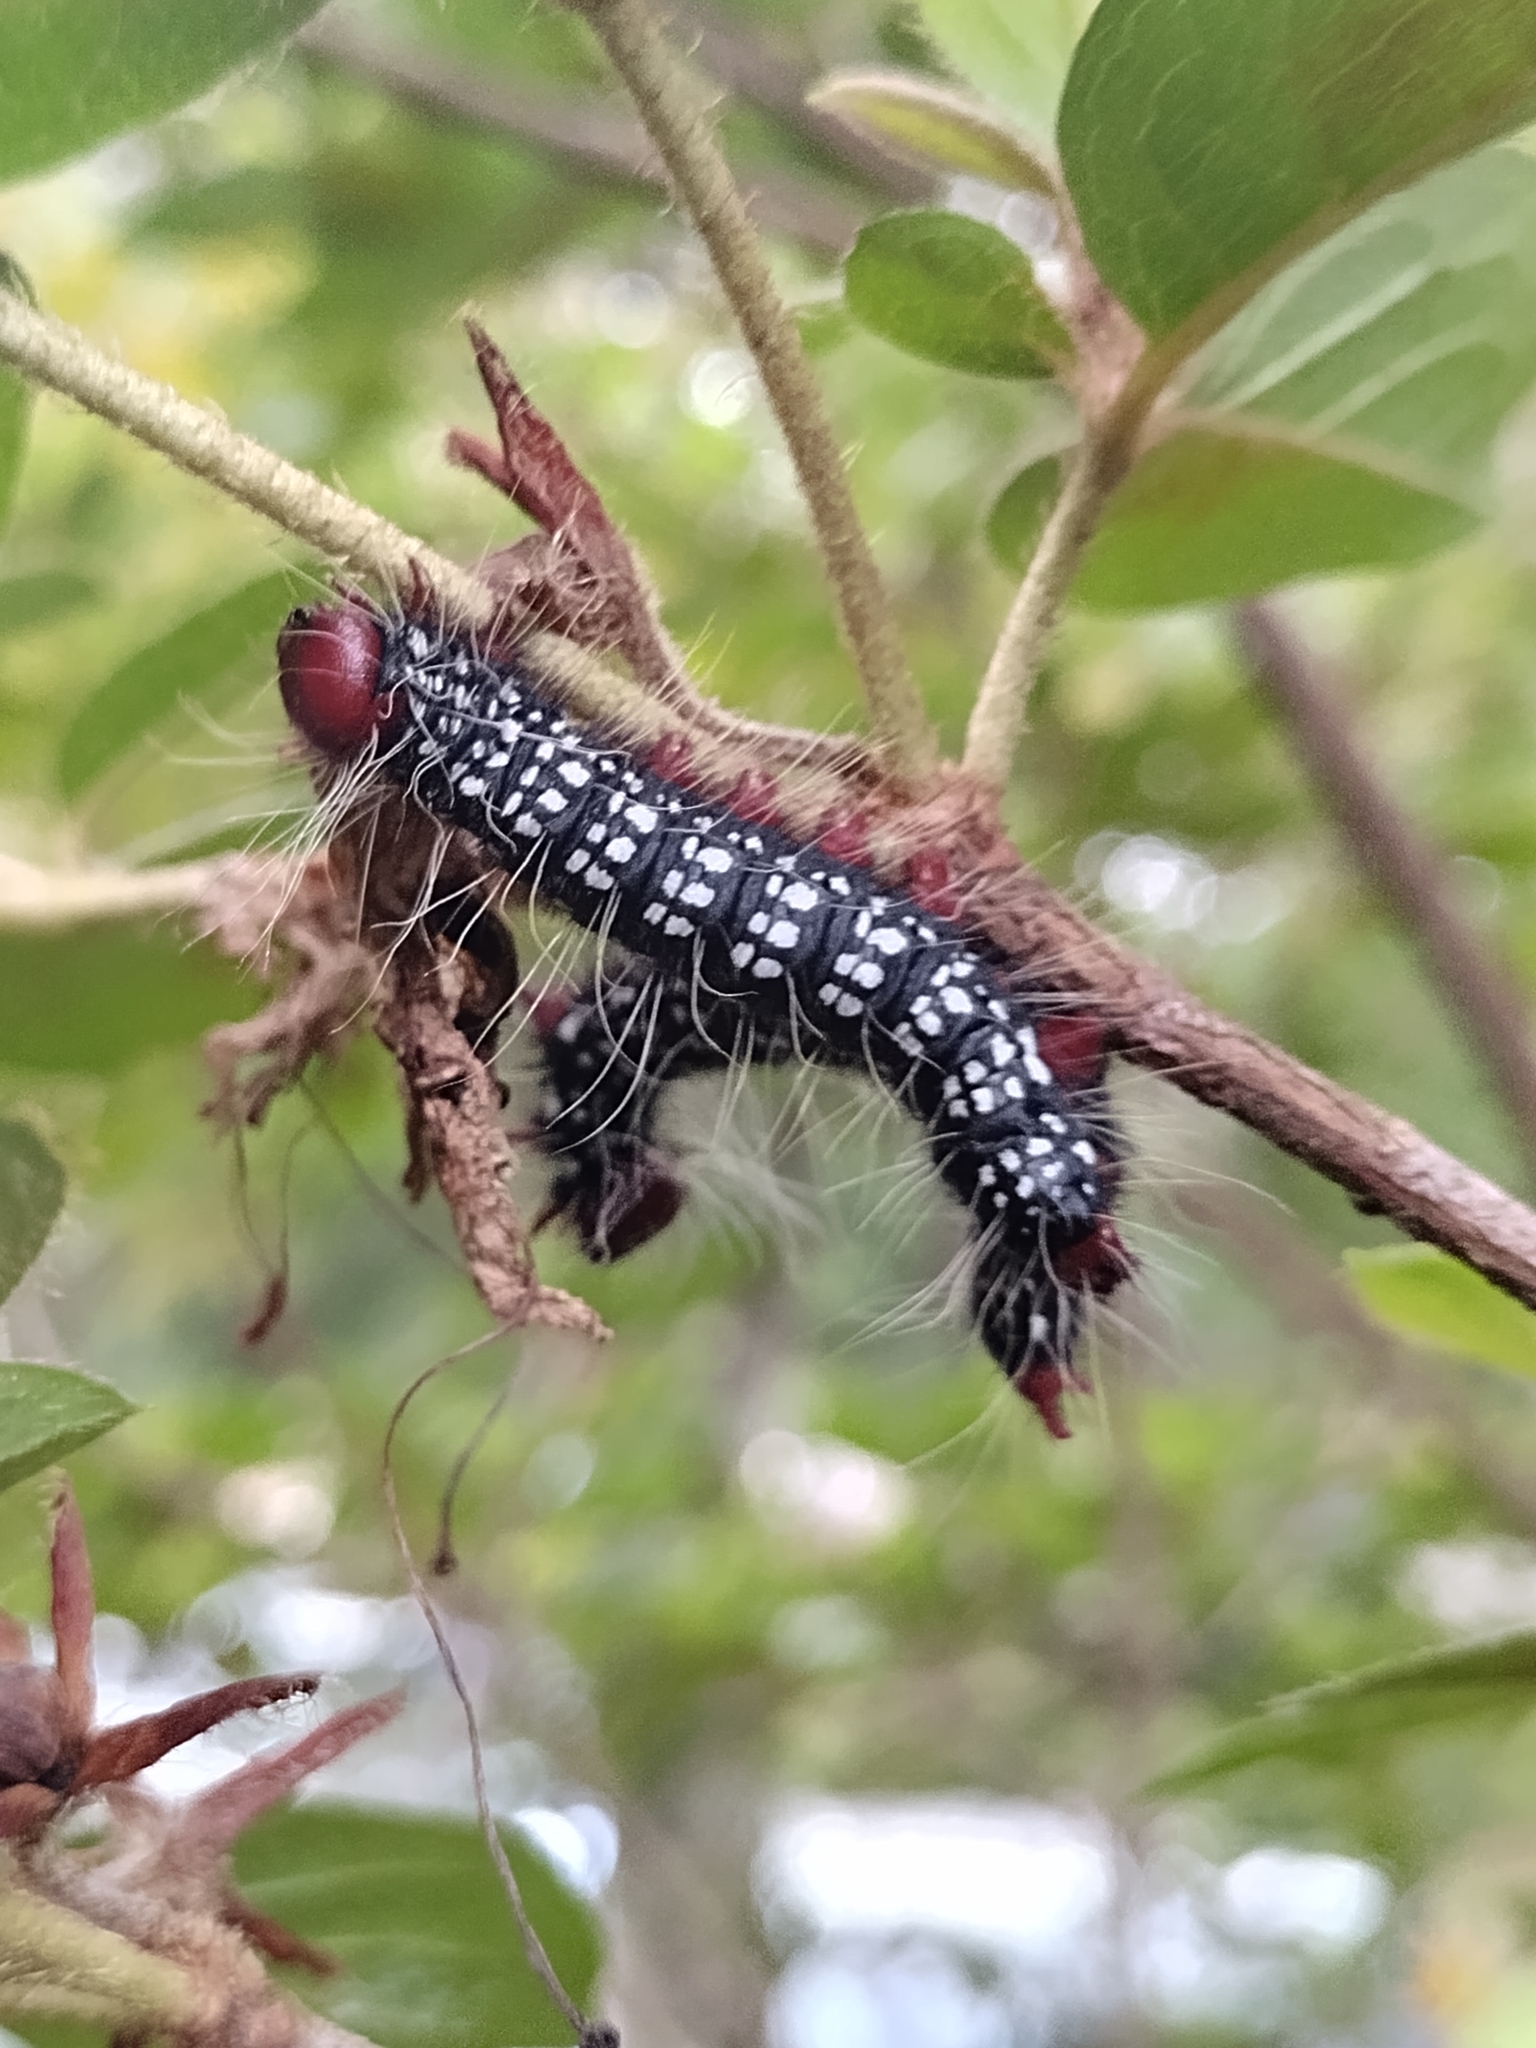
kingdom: Animalia
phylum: Arthropoda
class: Insecta
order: Lepidoptera
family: Notodontidae
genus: Datana
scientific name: Datana major
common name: Azalea caterpillar
